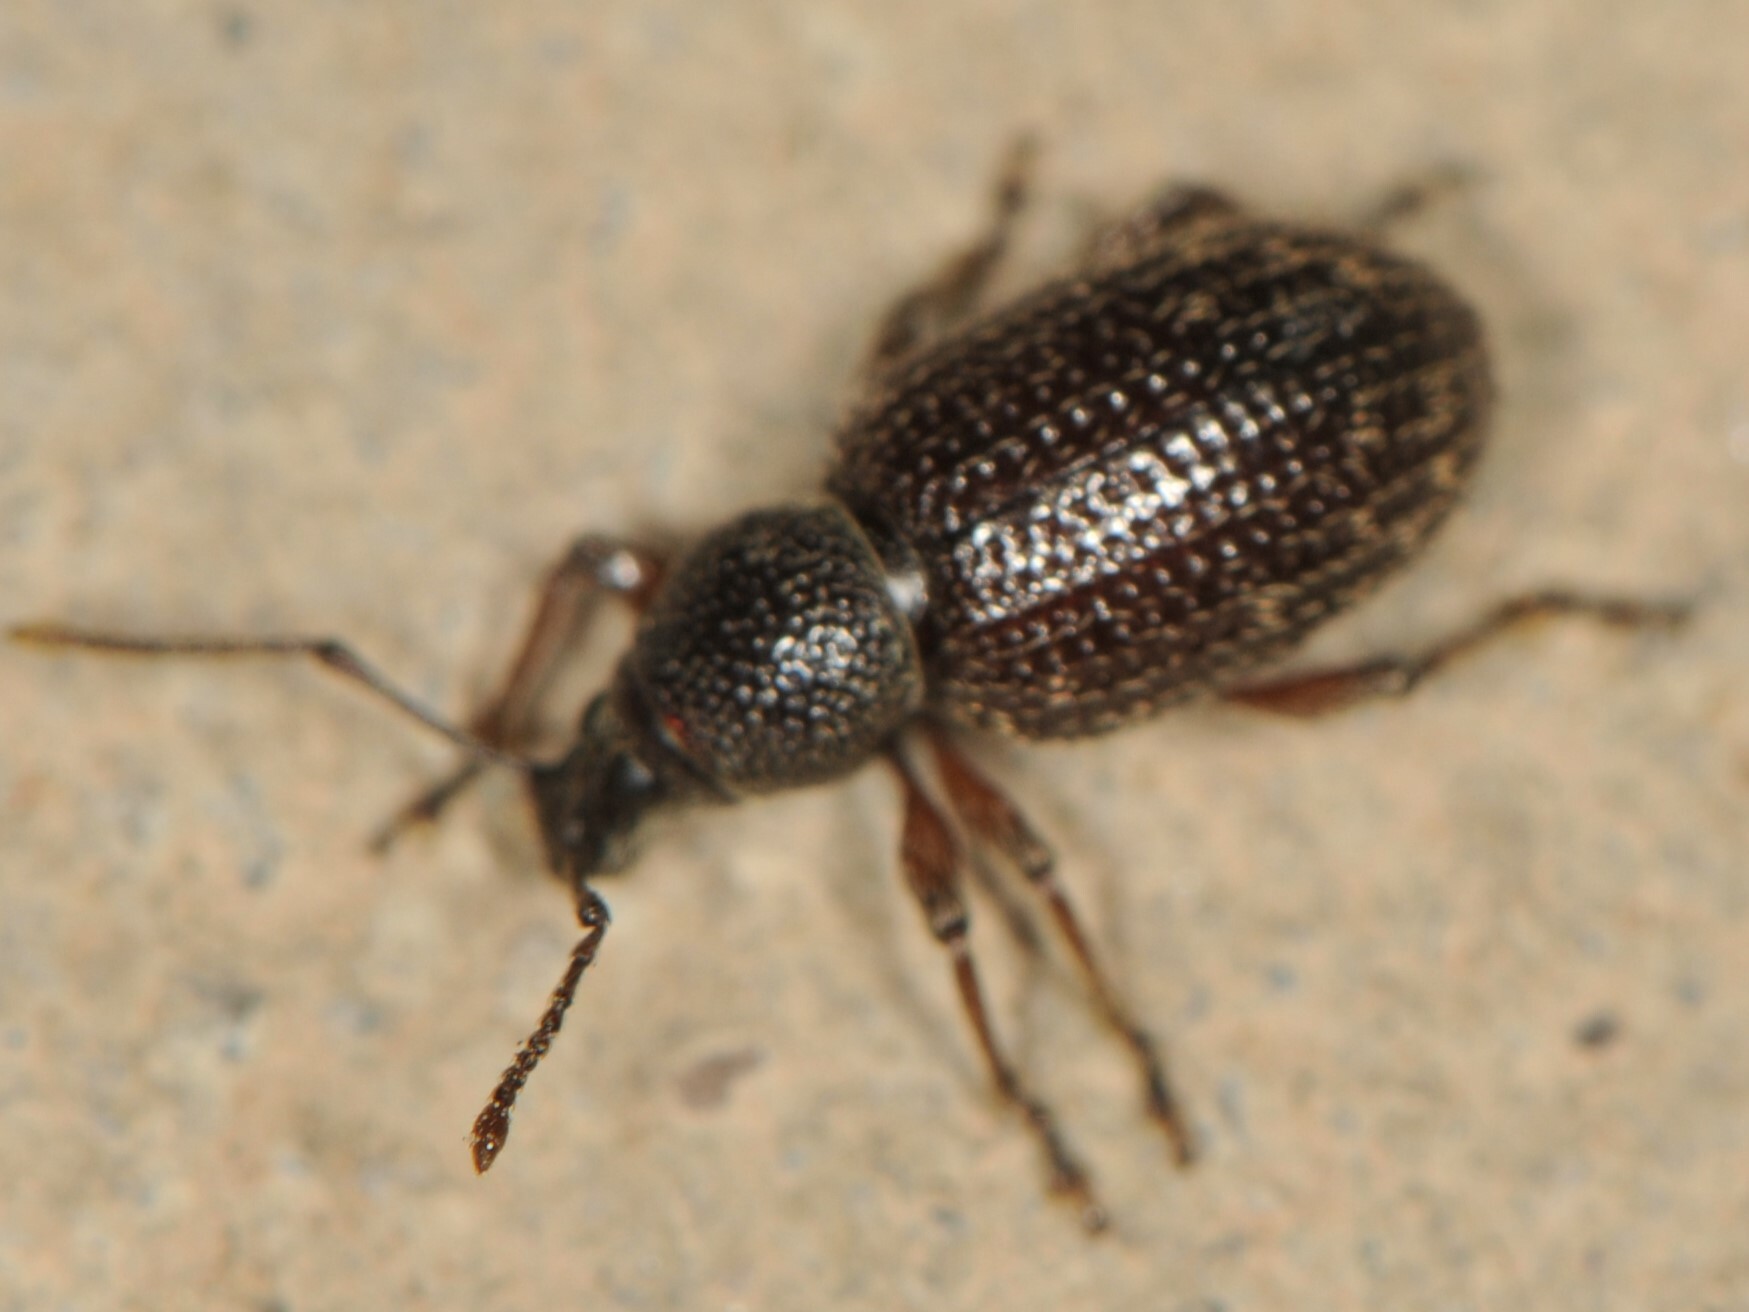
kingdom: Animalia
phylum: Arthropoda
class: Insecta
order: Coleoptera
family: Curculionidae
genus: Otiorhynchus
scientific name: Otiorhynchus cribricollis
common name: Weevil
